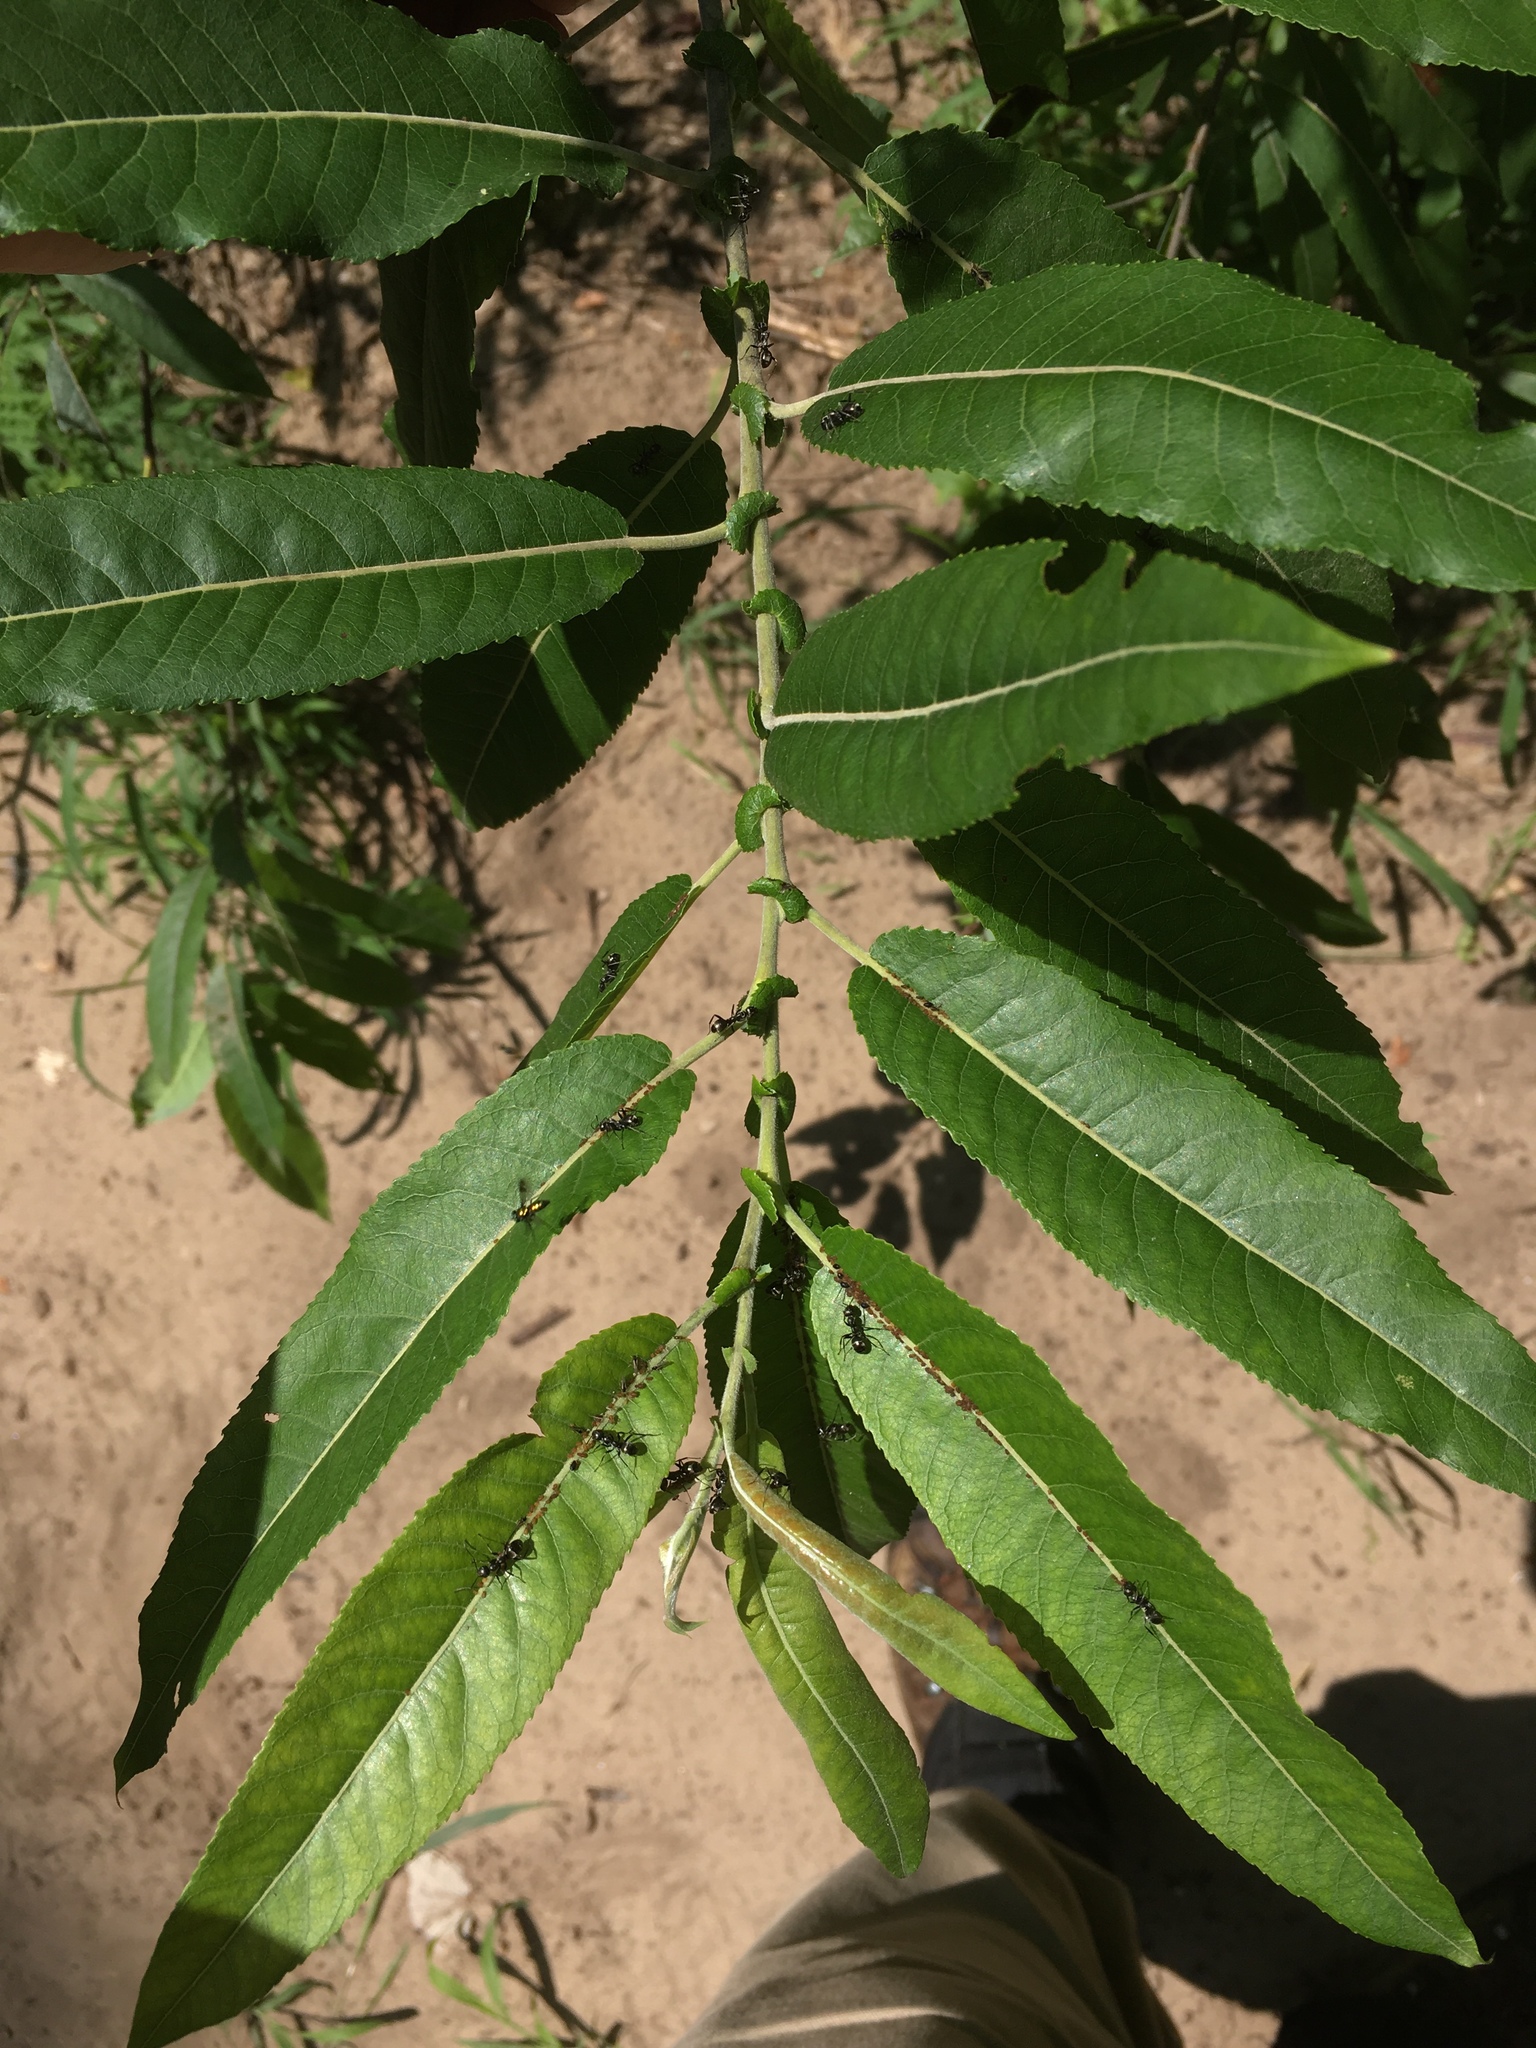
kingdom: Plantae
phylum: Tracheophyta
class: Magnoliopsida
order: Malpighiales
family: Salicaceae
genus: Salix
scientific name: Salix eriocephala
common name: Heart-leaved willow
